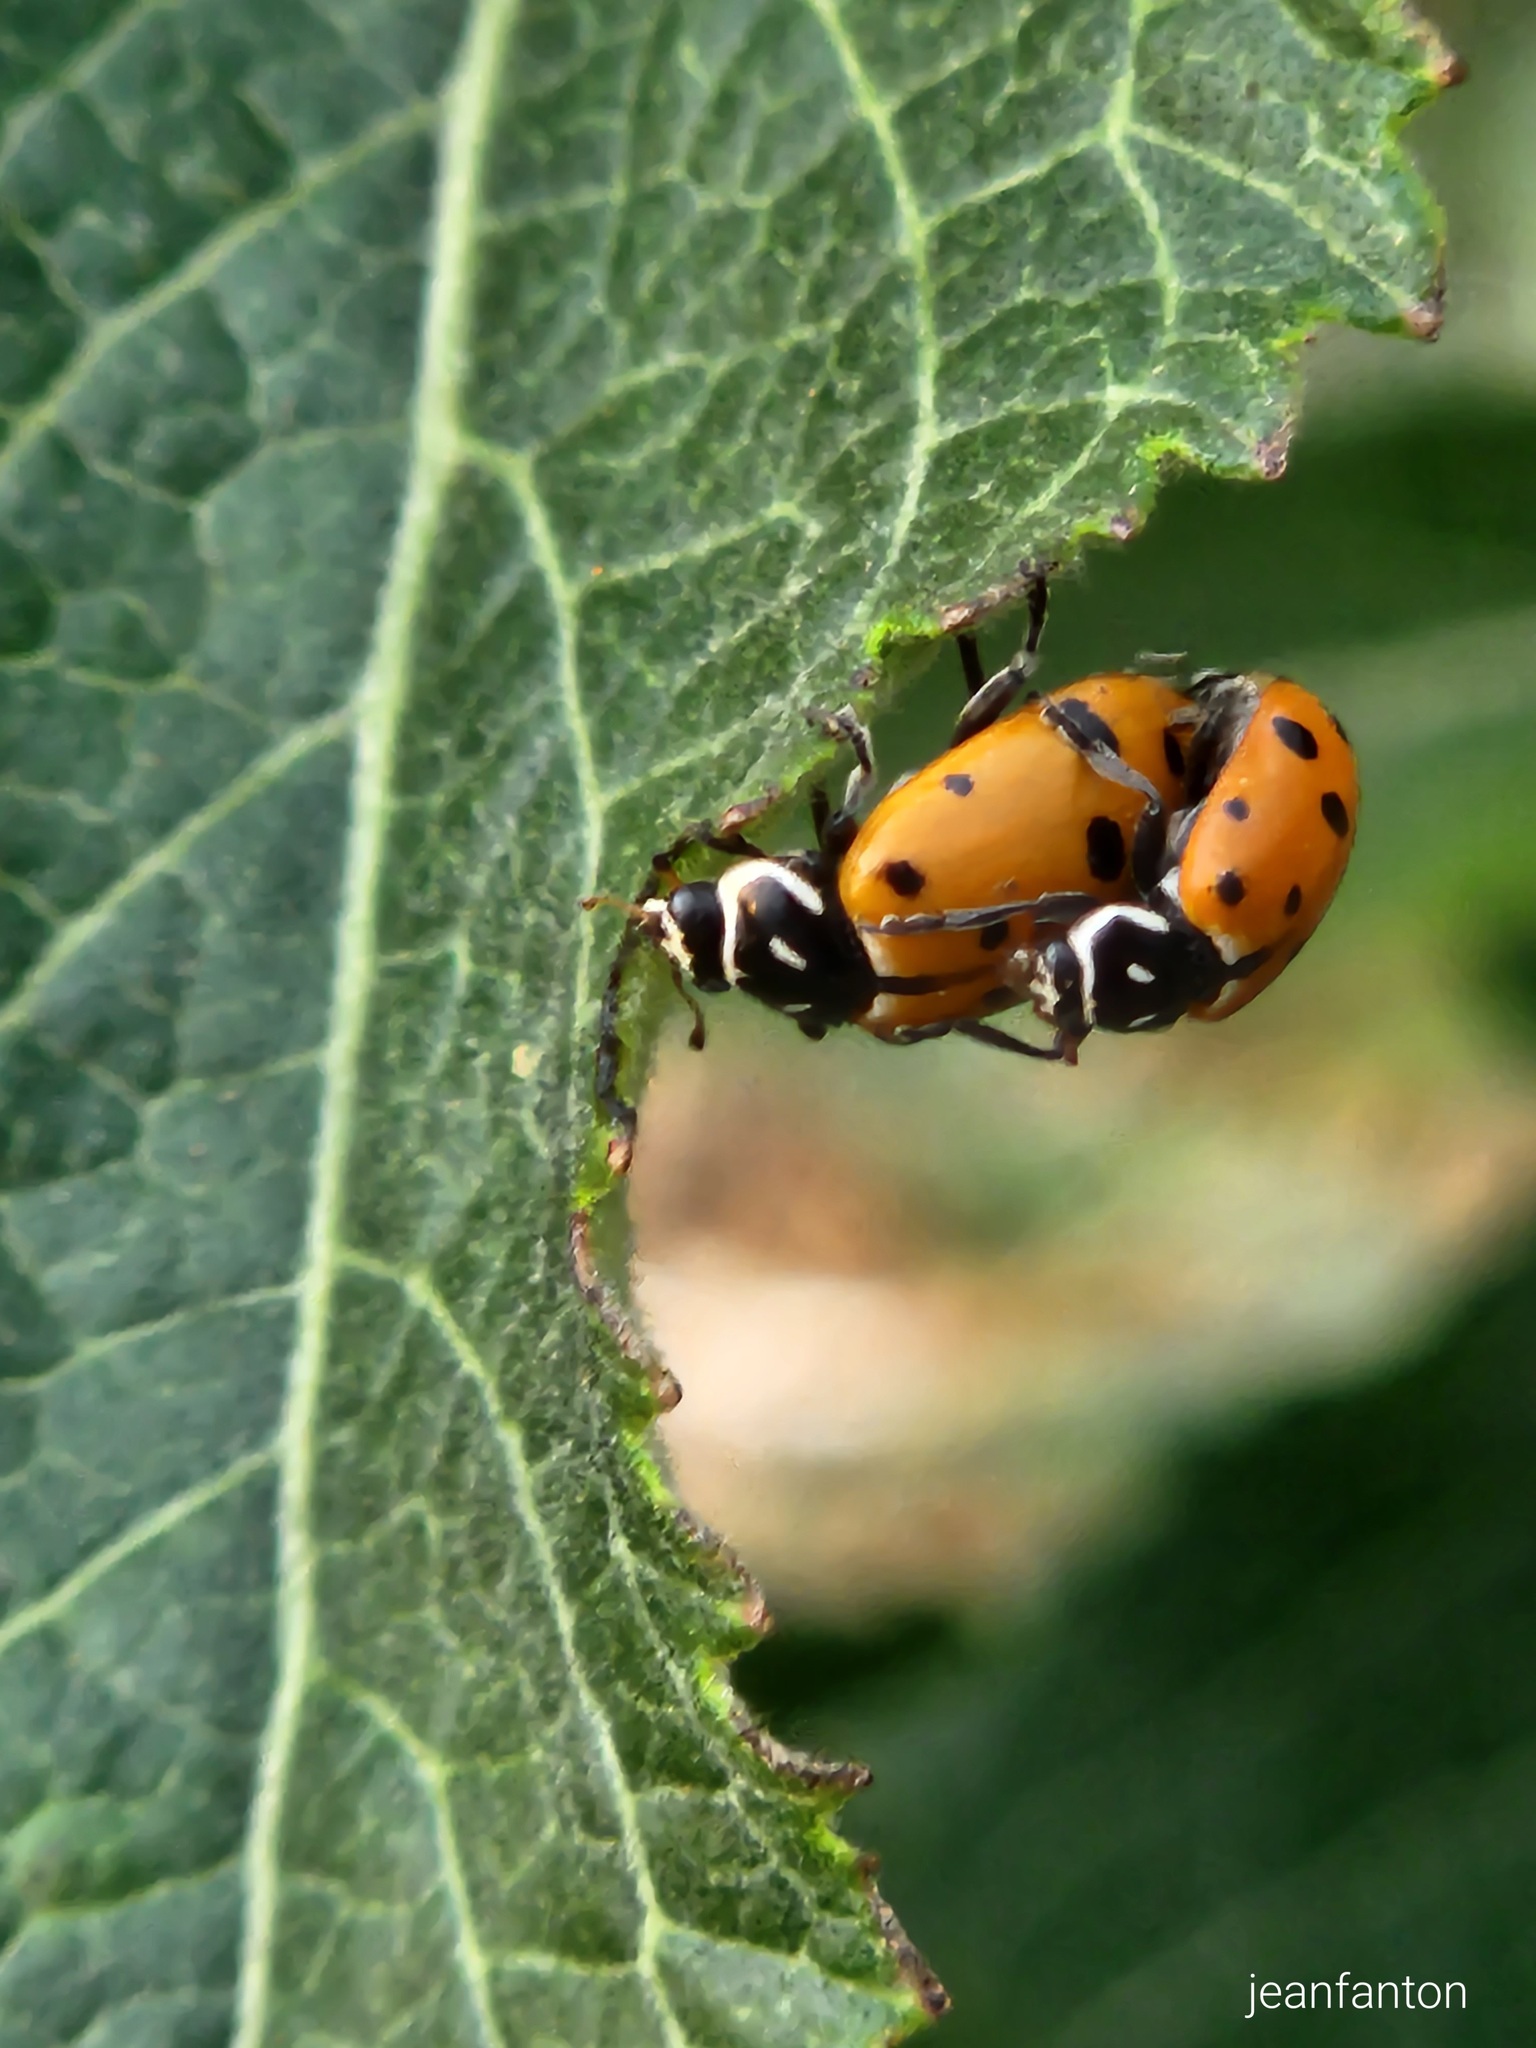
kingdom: Animalia
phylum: Arthropoda
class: Insecta
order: Coleoptera
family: Coccinellidae
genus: Hippodamia
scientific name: Hippodamia convergens
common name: Convergent lady beetle
